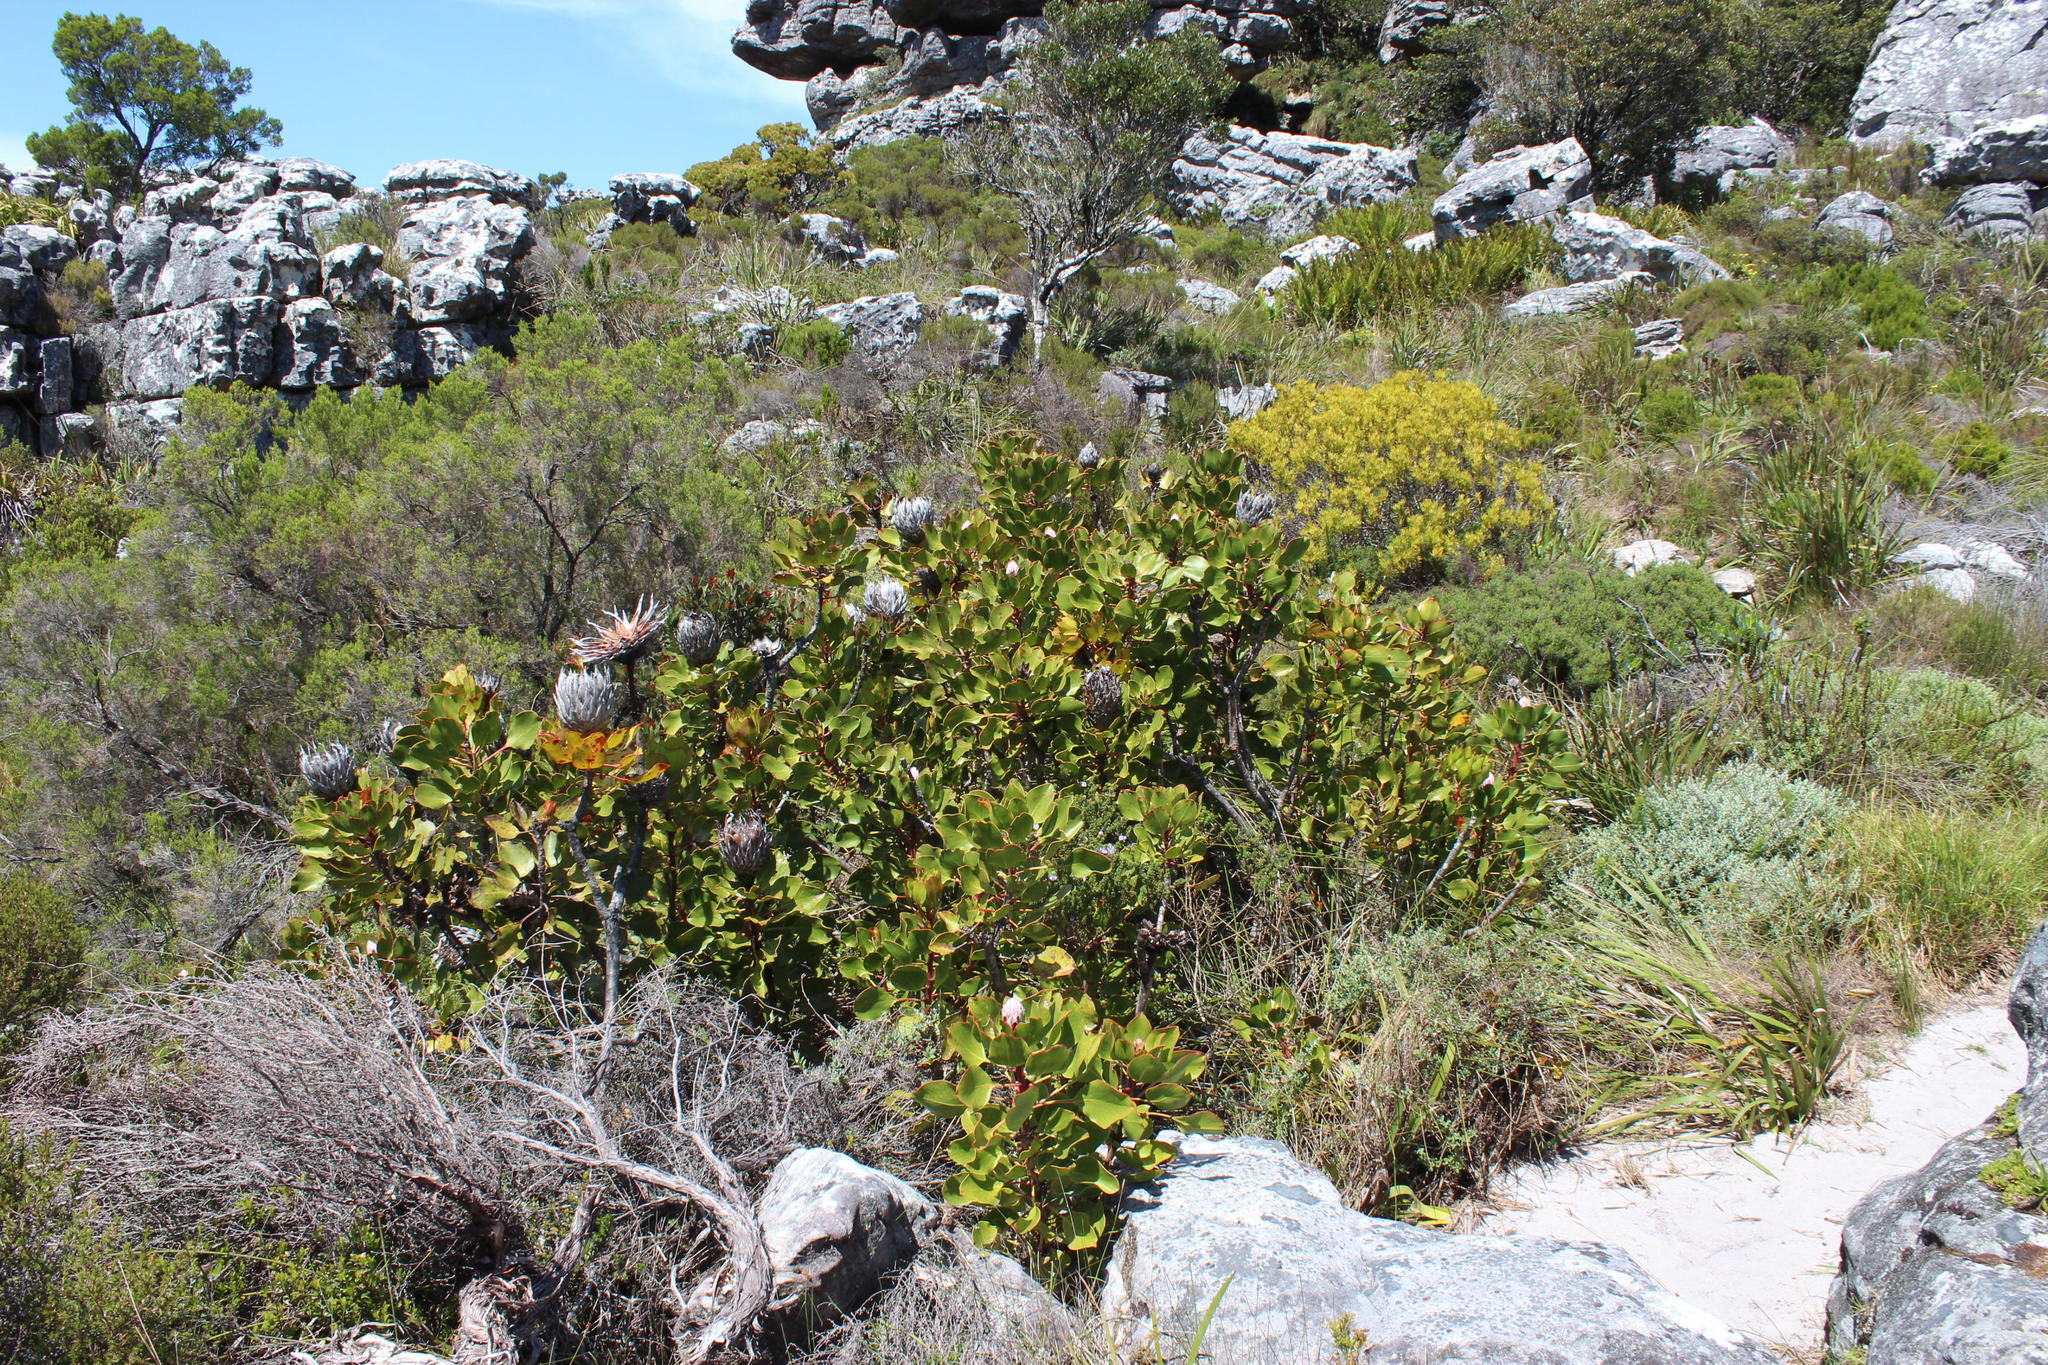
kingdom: Plantae
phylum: Tracheophyta
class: Magnoliopsida
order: Proteales
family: Proteaceae
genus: Protea
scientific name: Protea cynaroides
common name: King protea
